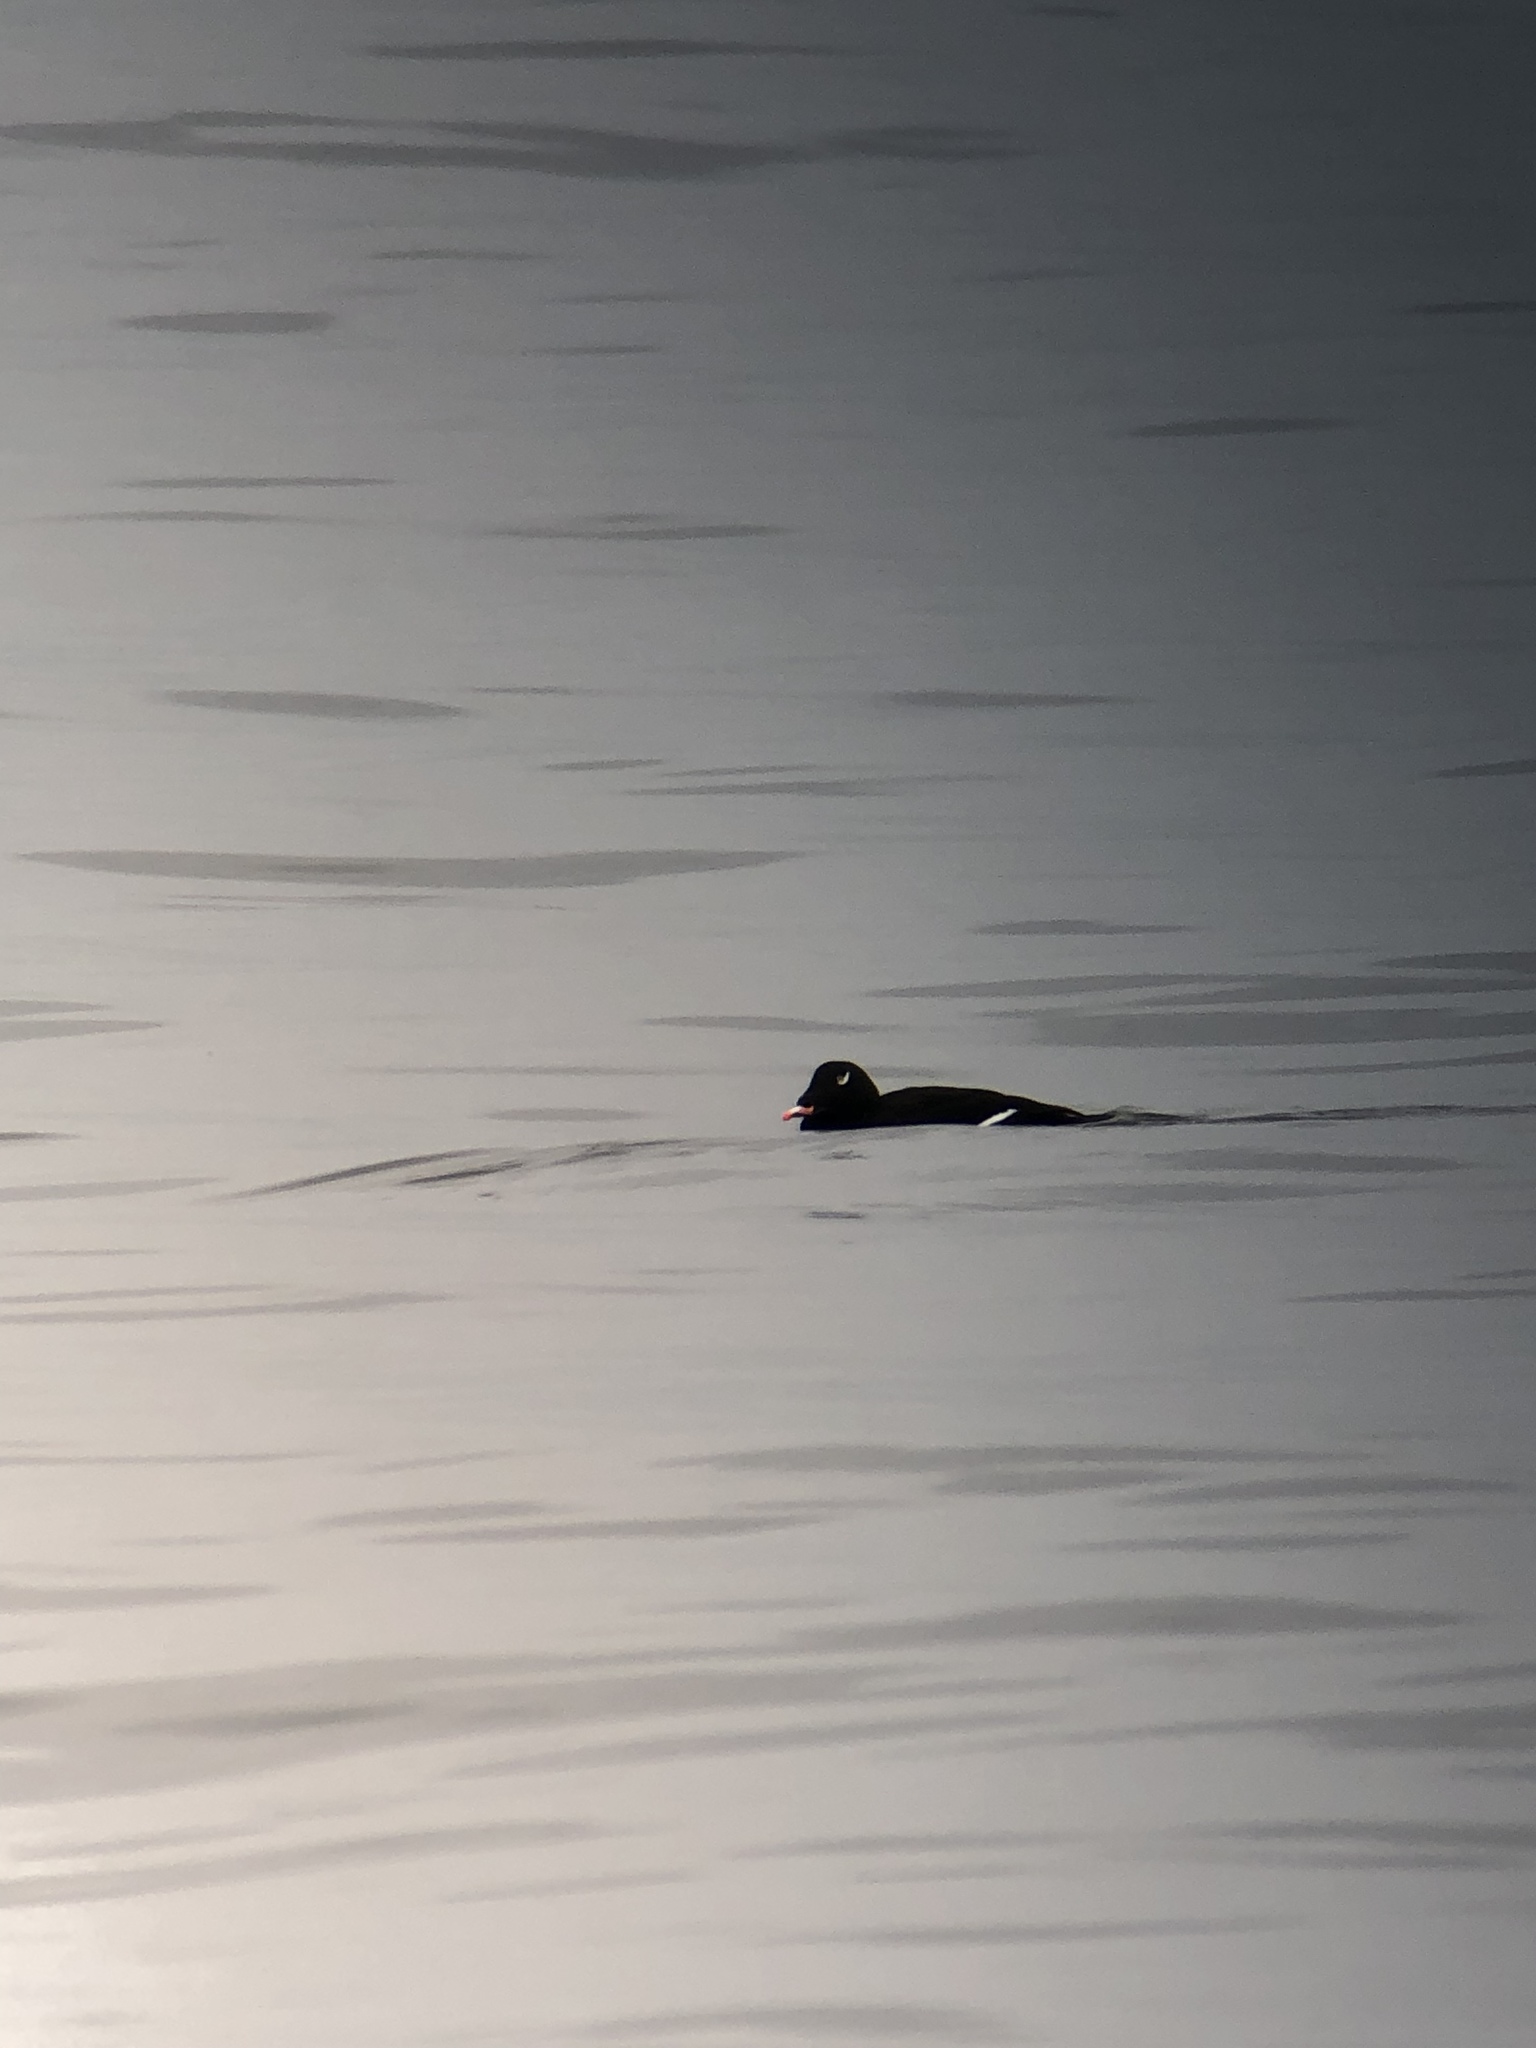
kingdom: Animalia
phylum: Chordata
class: Aves
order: Anseriformes
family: Anatidae
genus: Melanitta
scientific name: Melanitta deglandi
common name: White-winged scoter
